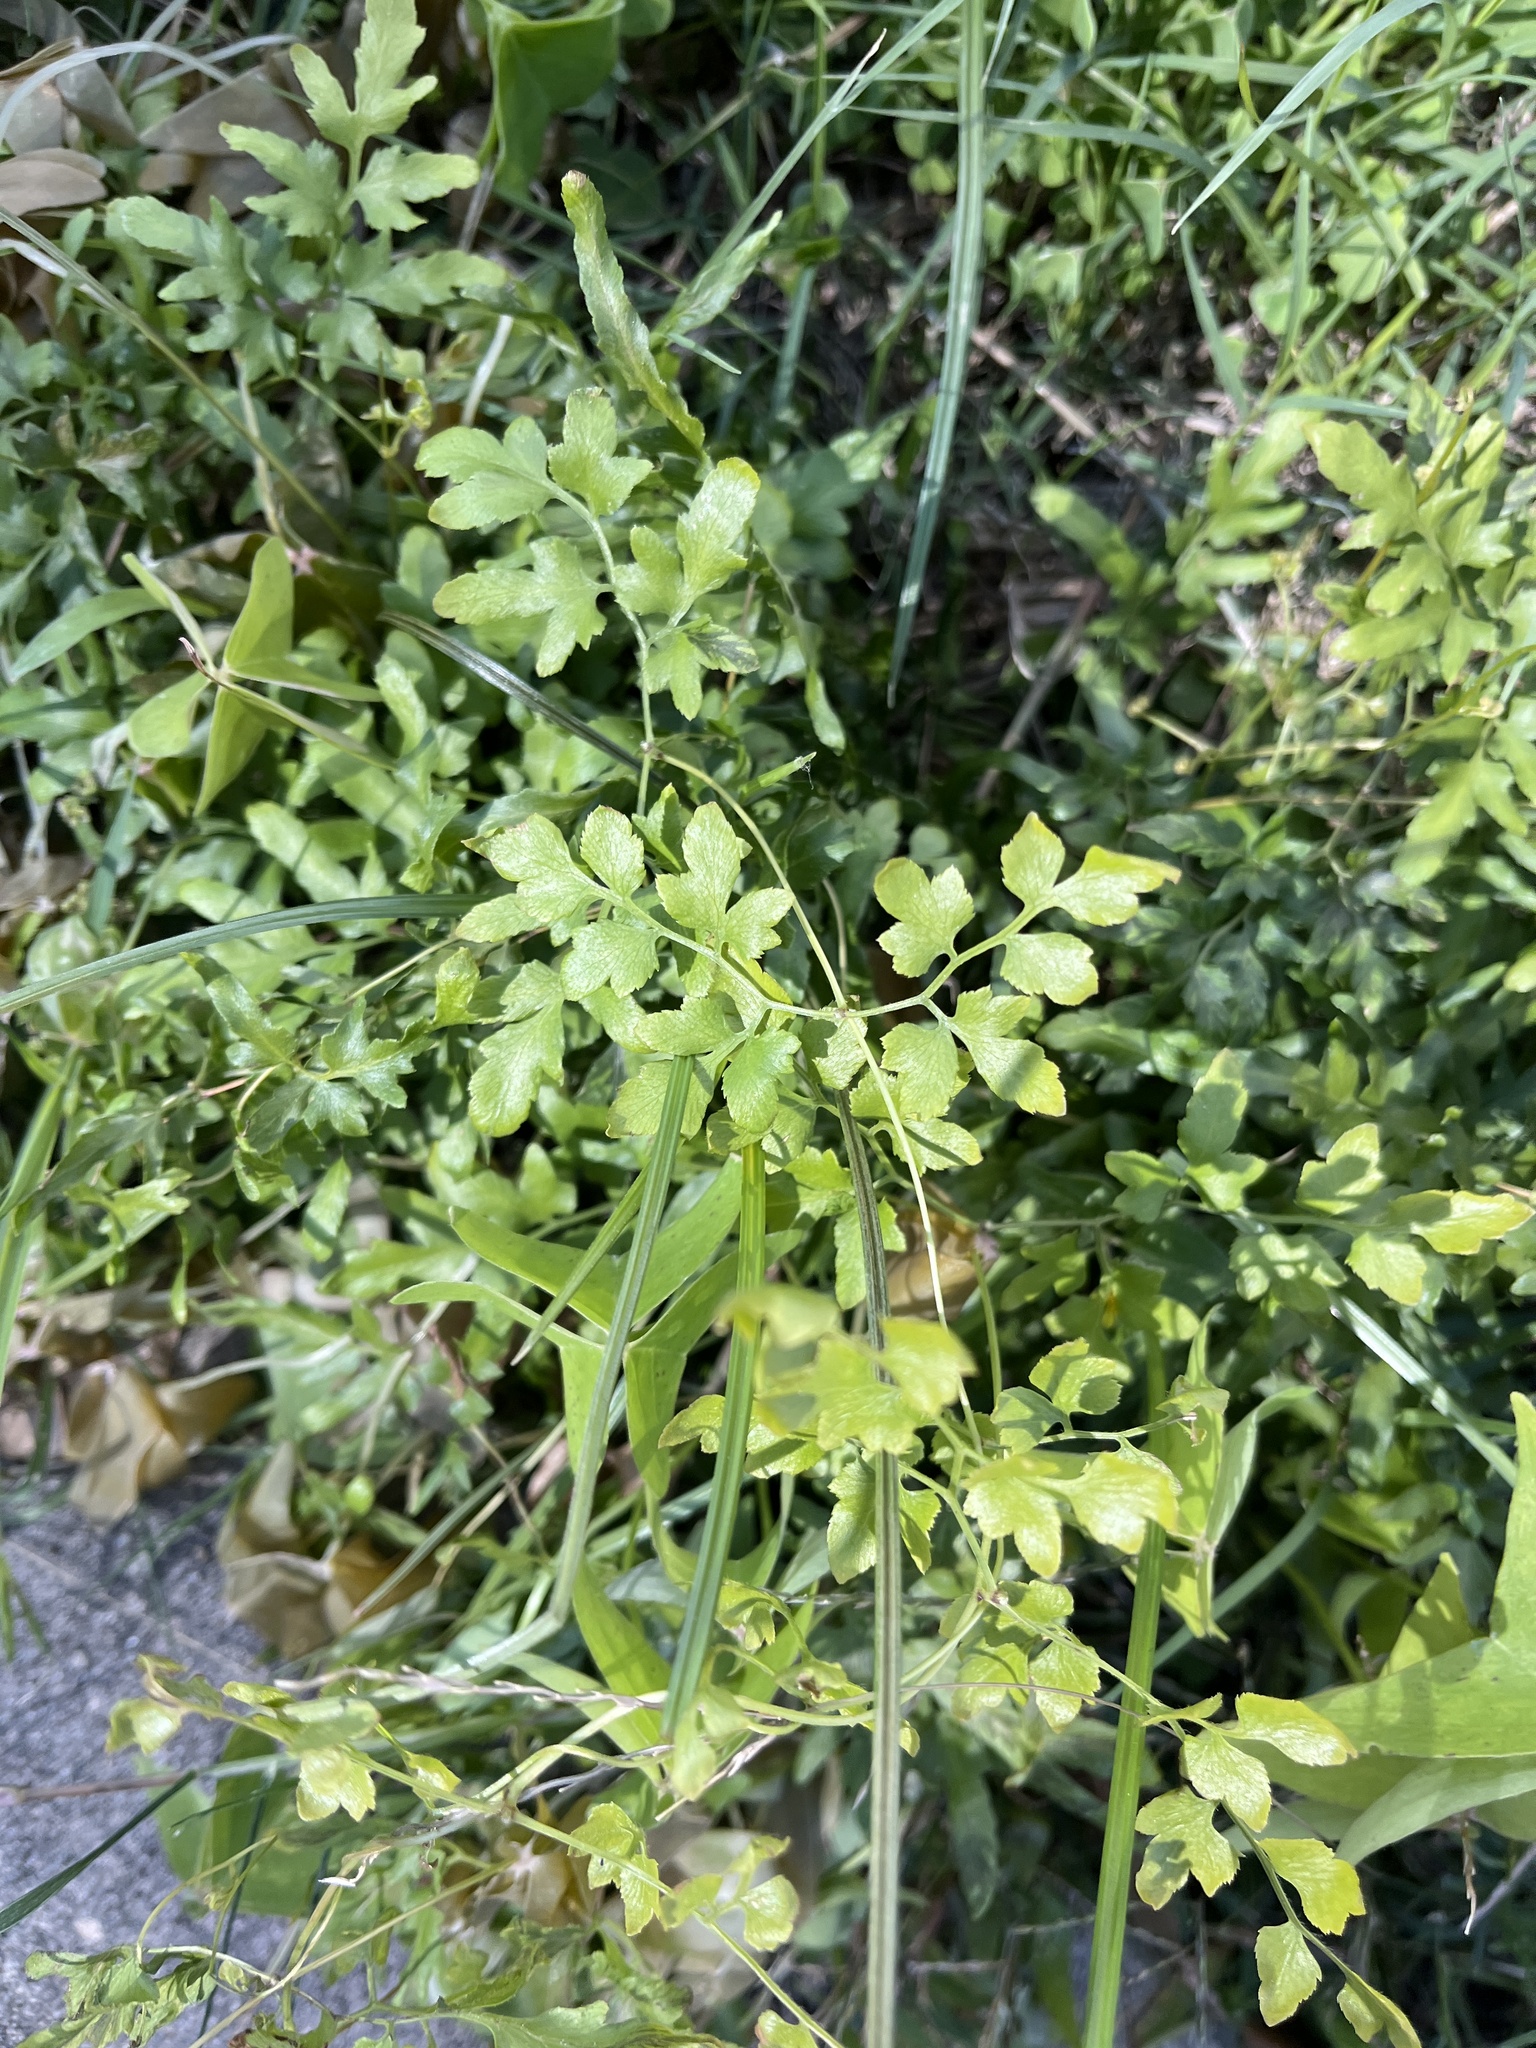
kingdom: Plantae
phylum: Tracheophyta
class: Polypodiopsida
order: Schizaeales
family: Lygodiaceae
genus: Lygodium
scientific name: Lygodium japonicum
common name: Japanese climbing fern
